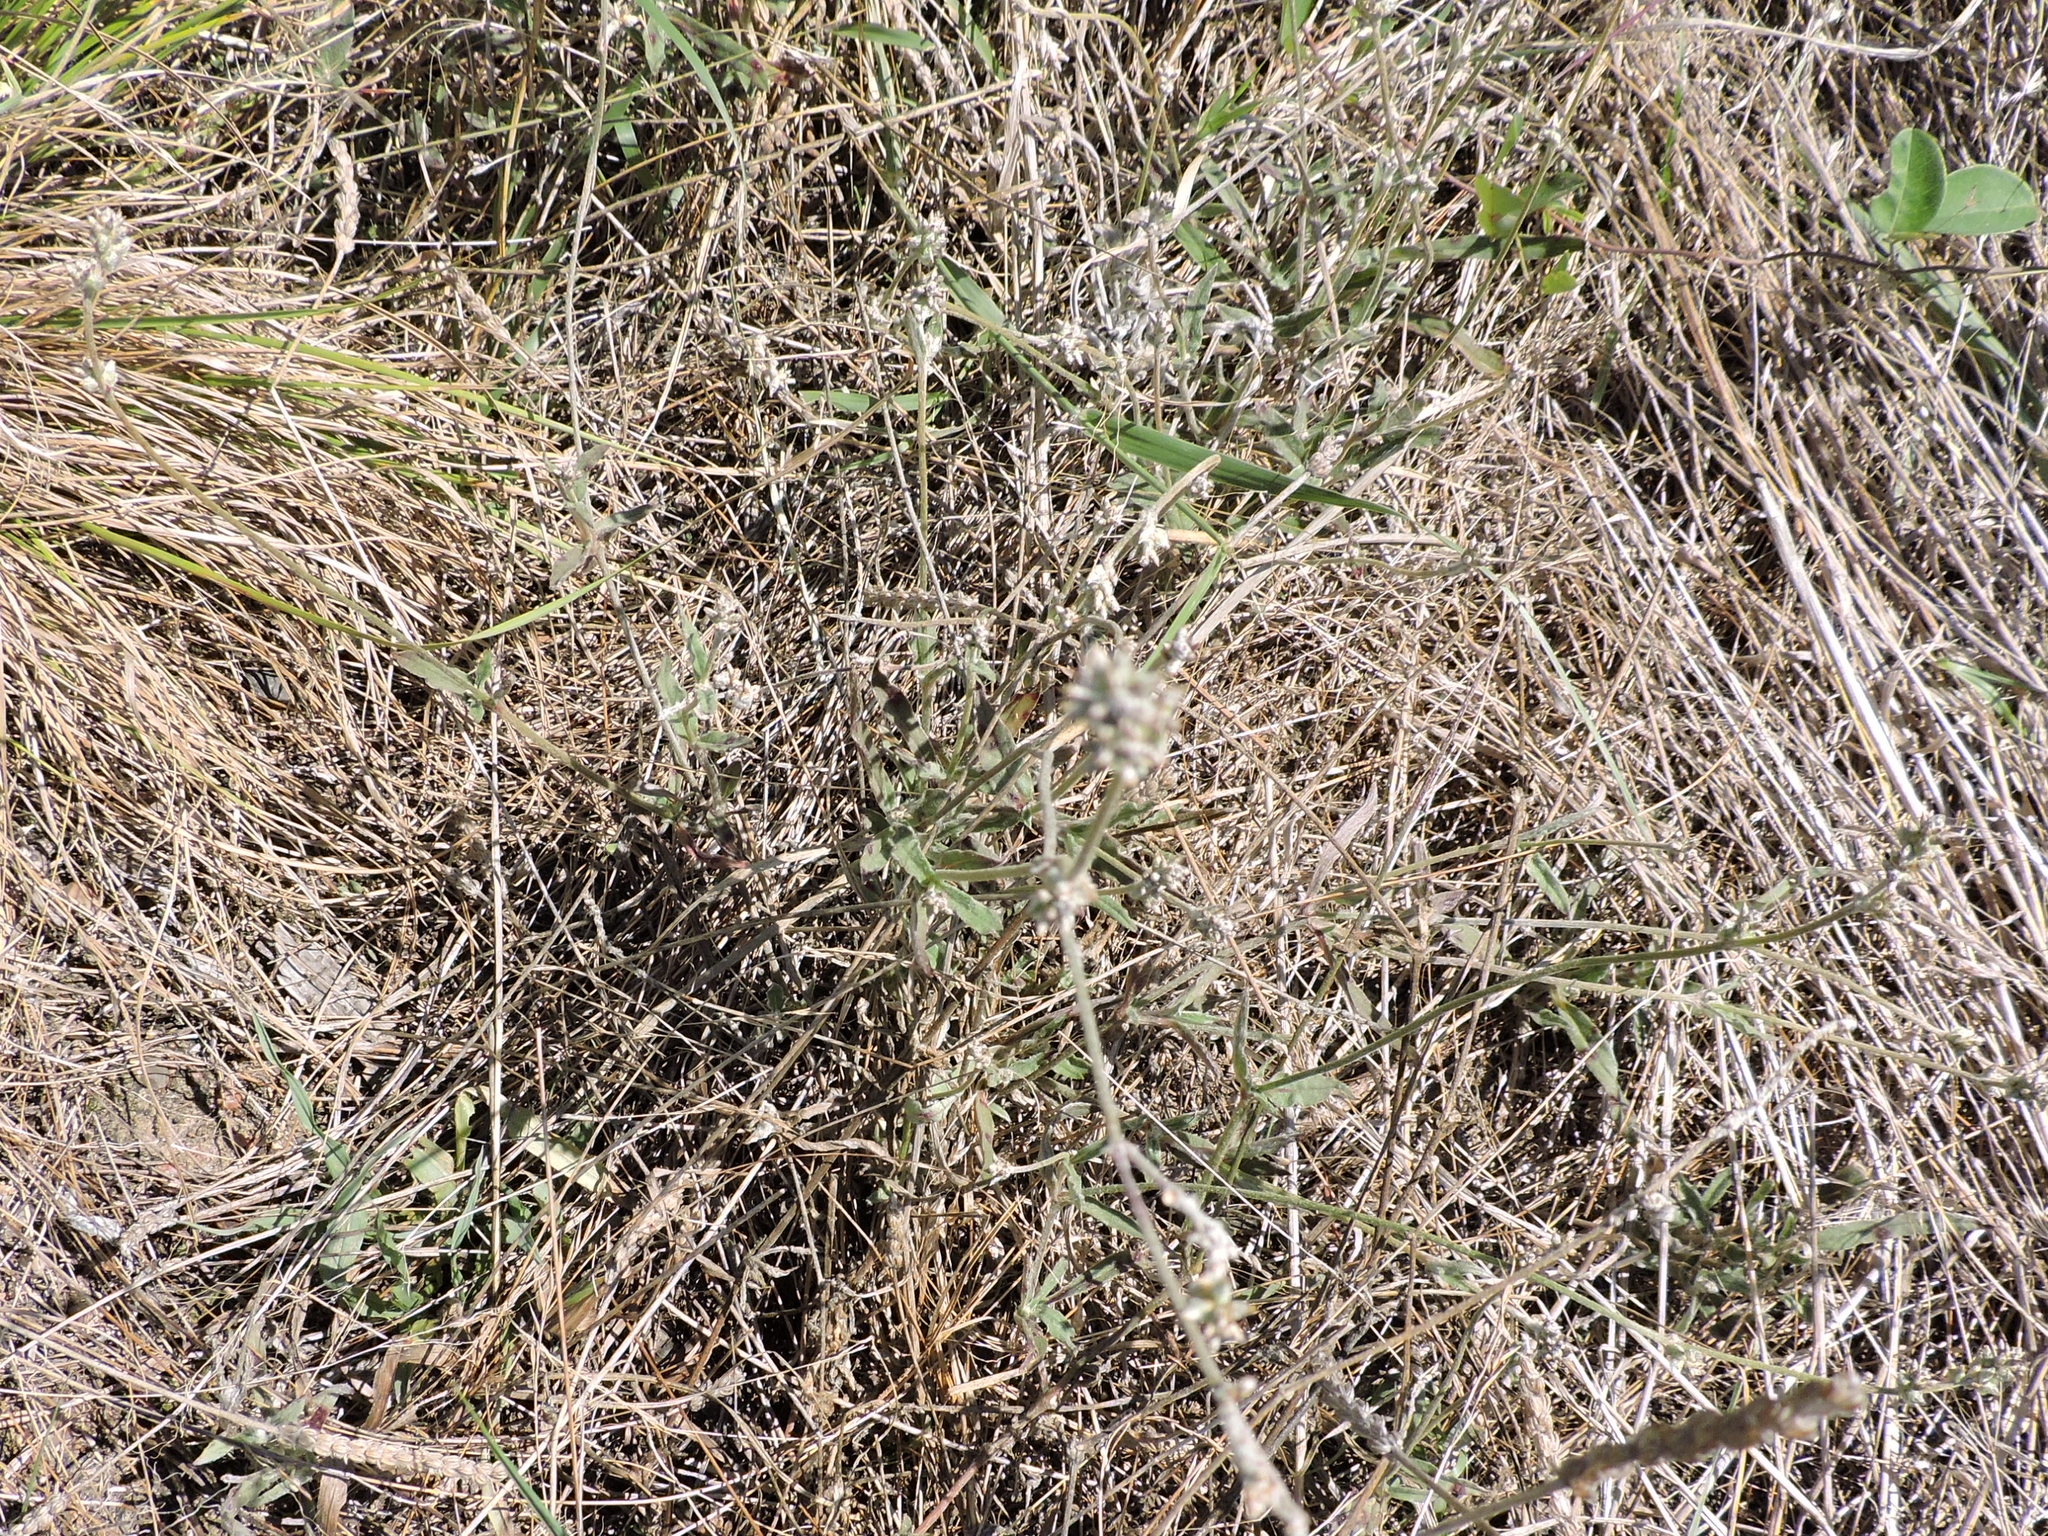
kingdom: Plantae
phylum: Tracheophyta
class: Magnoliopsida
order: Caryophyllales
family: Amaranthaceae
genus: Froelichia
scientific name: Froelichia gracilis
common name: Slender cottonweed
